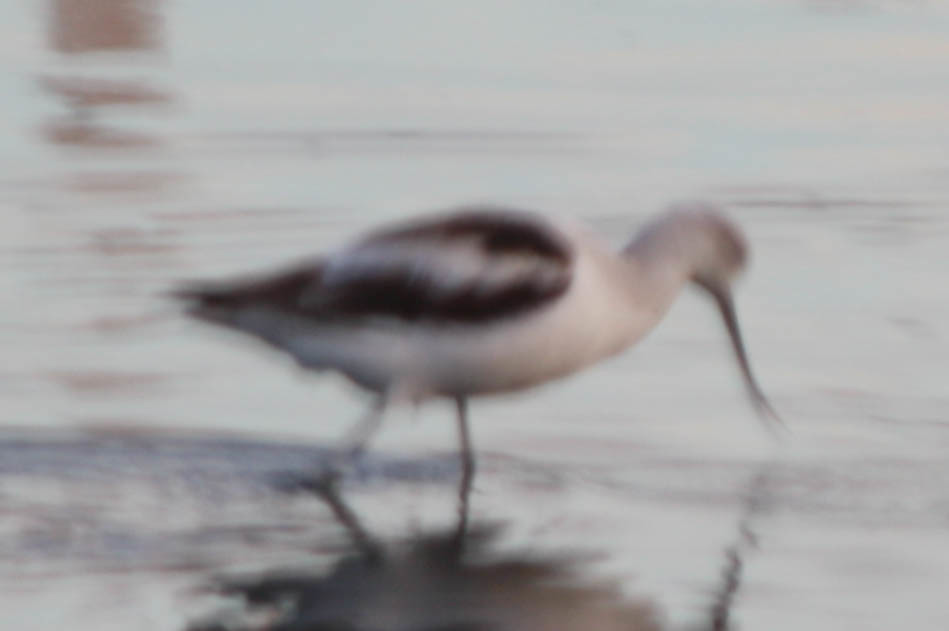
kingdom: Animalia
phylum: Chordata
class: Aves
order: Charadriiformes
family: Recurvirostridae
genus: Recurvirostra
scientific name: Recurvirostra americana
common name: American avocet
